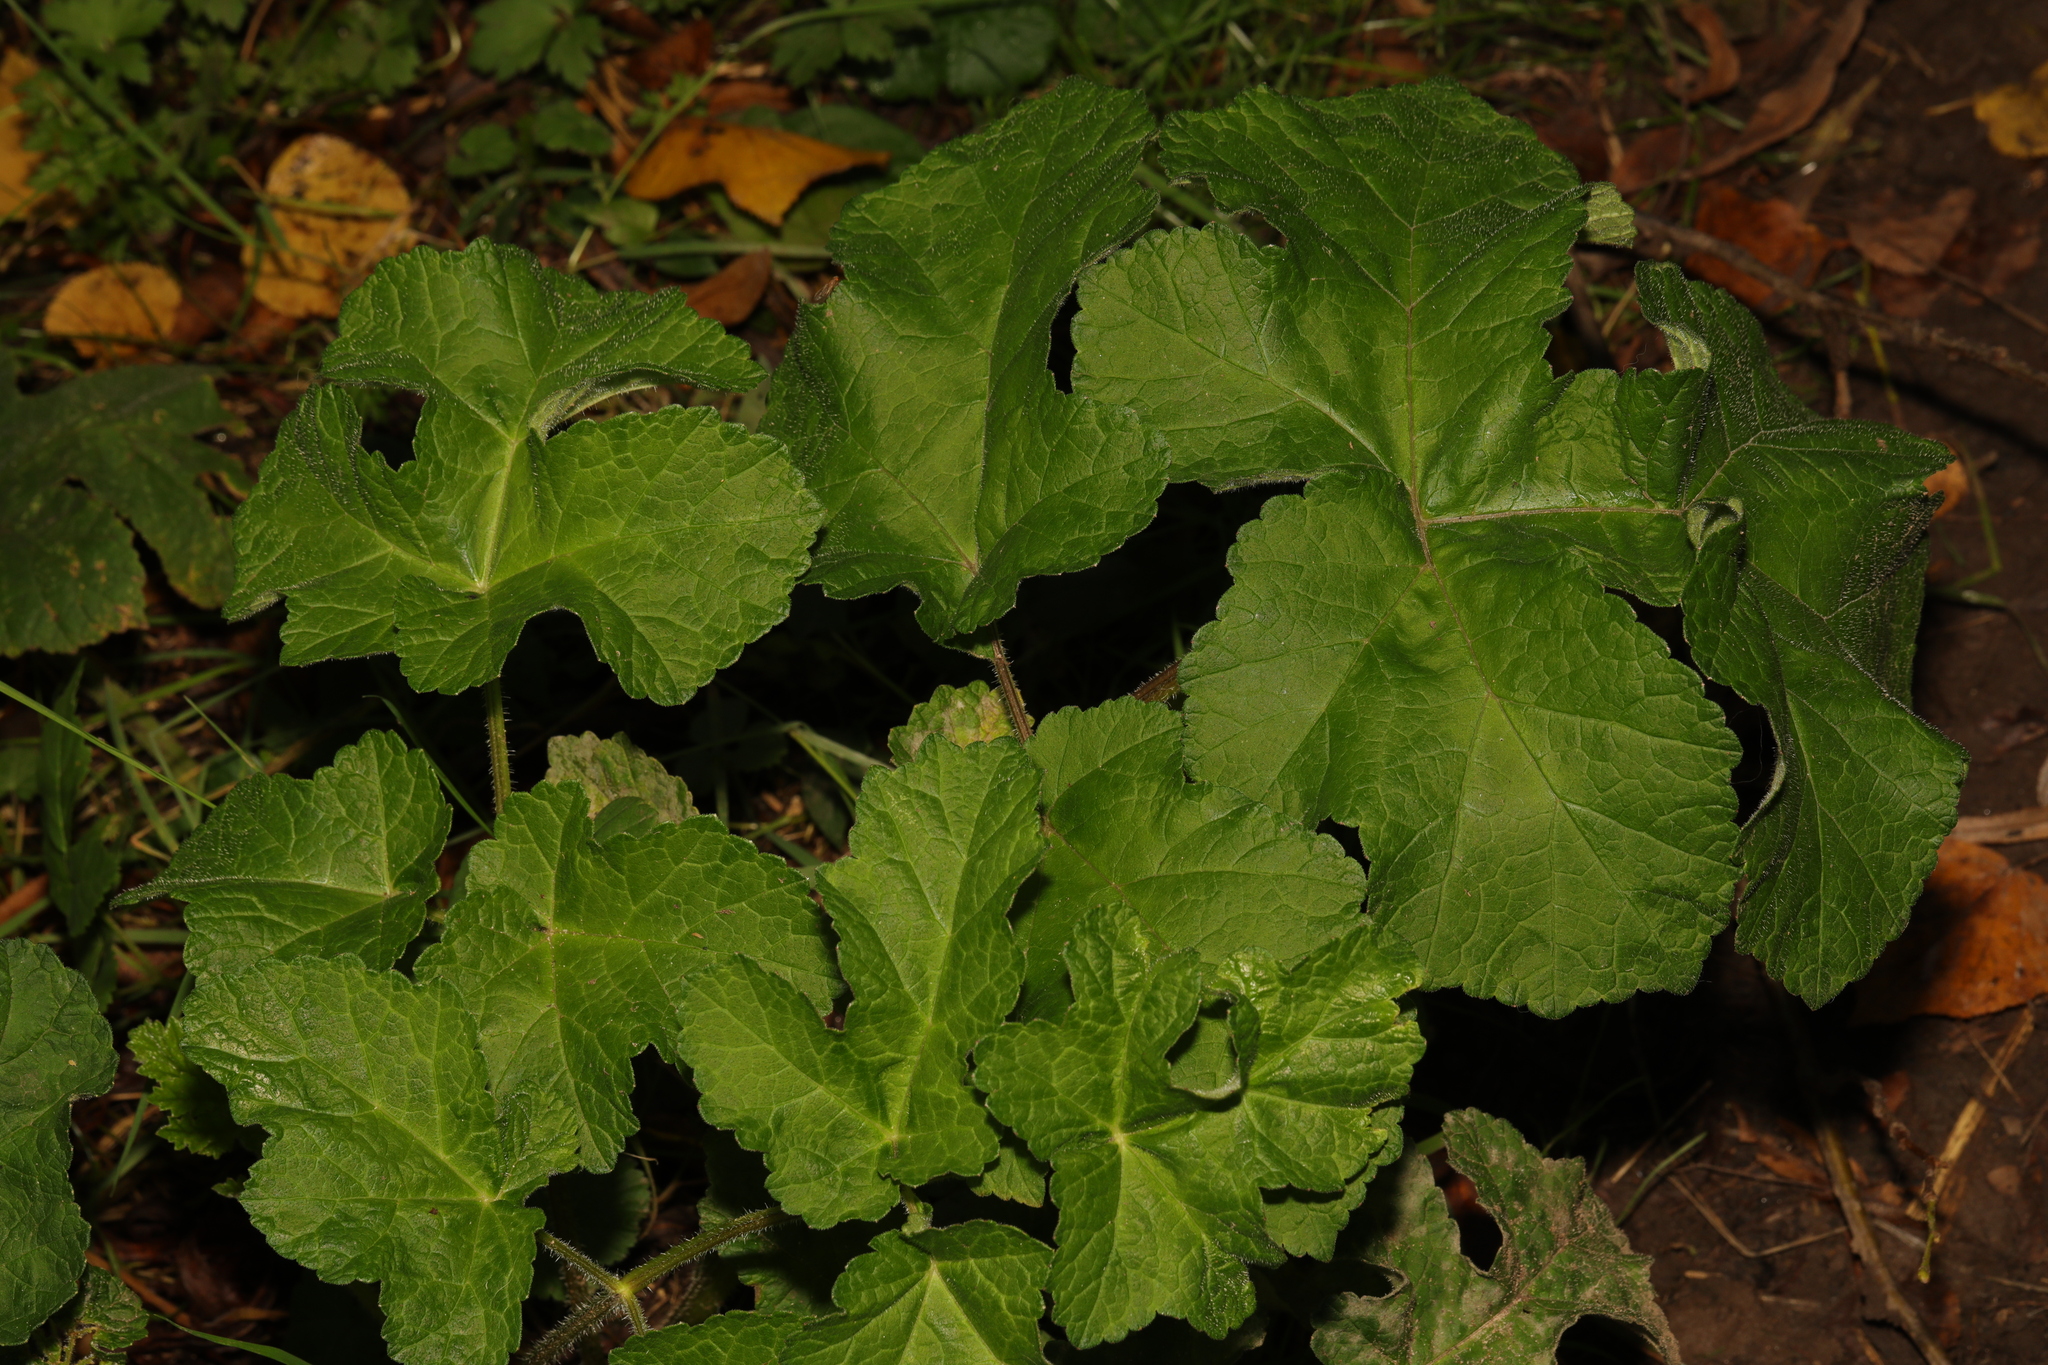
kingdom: Plantae
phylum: Tracheophyta
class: Magnoliopsida
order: Apiales
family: Apiaceae
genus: Heracleum
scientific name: Heracleum sphondylium
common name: Hogweed
